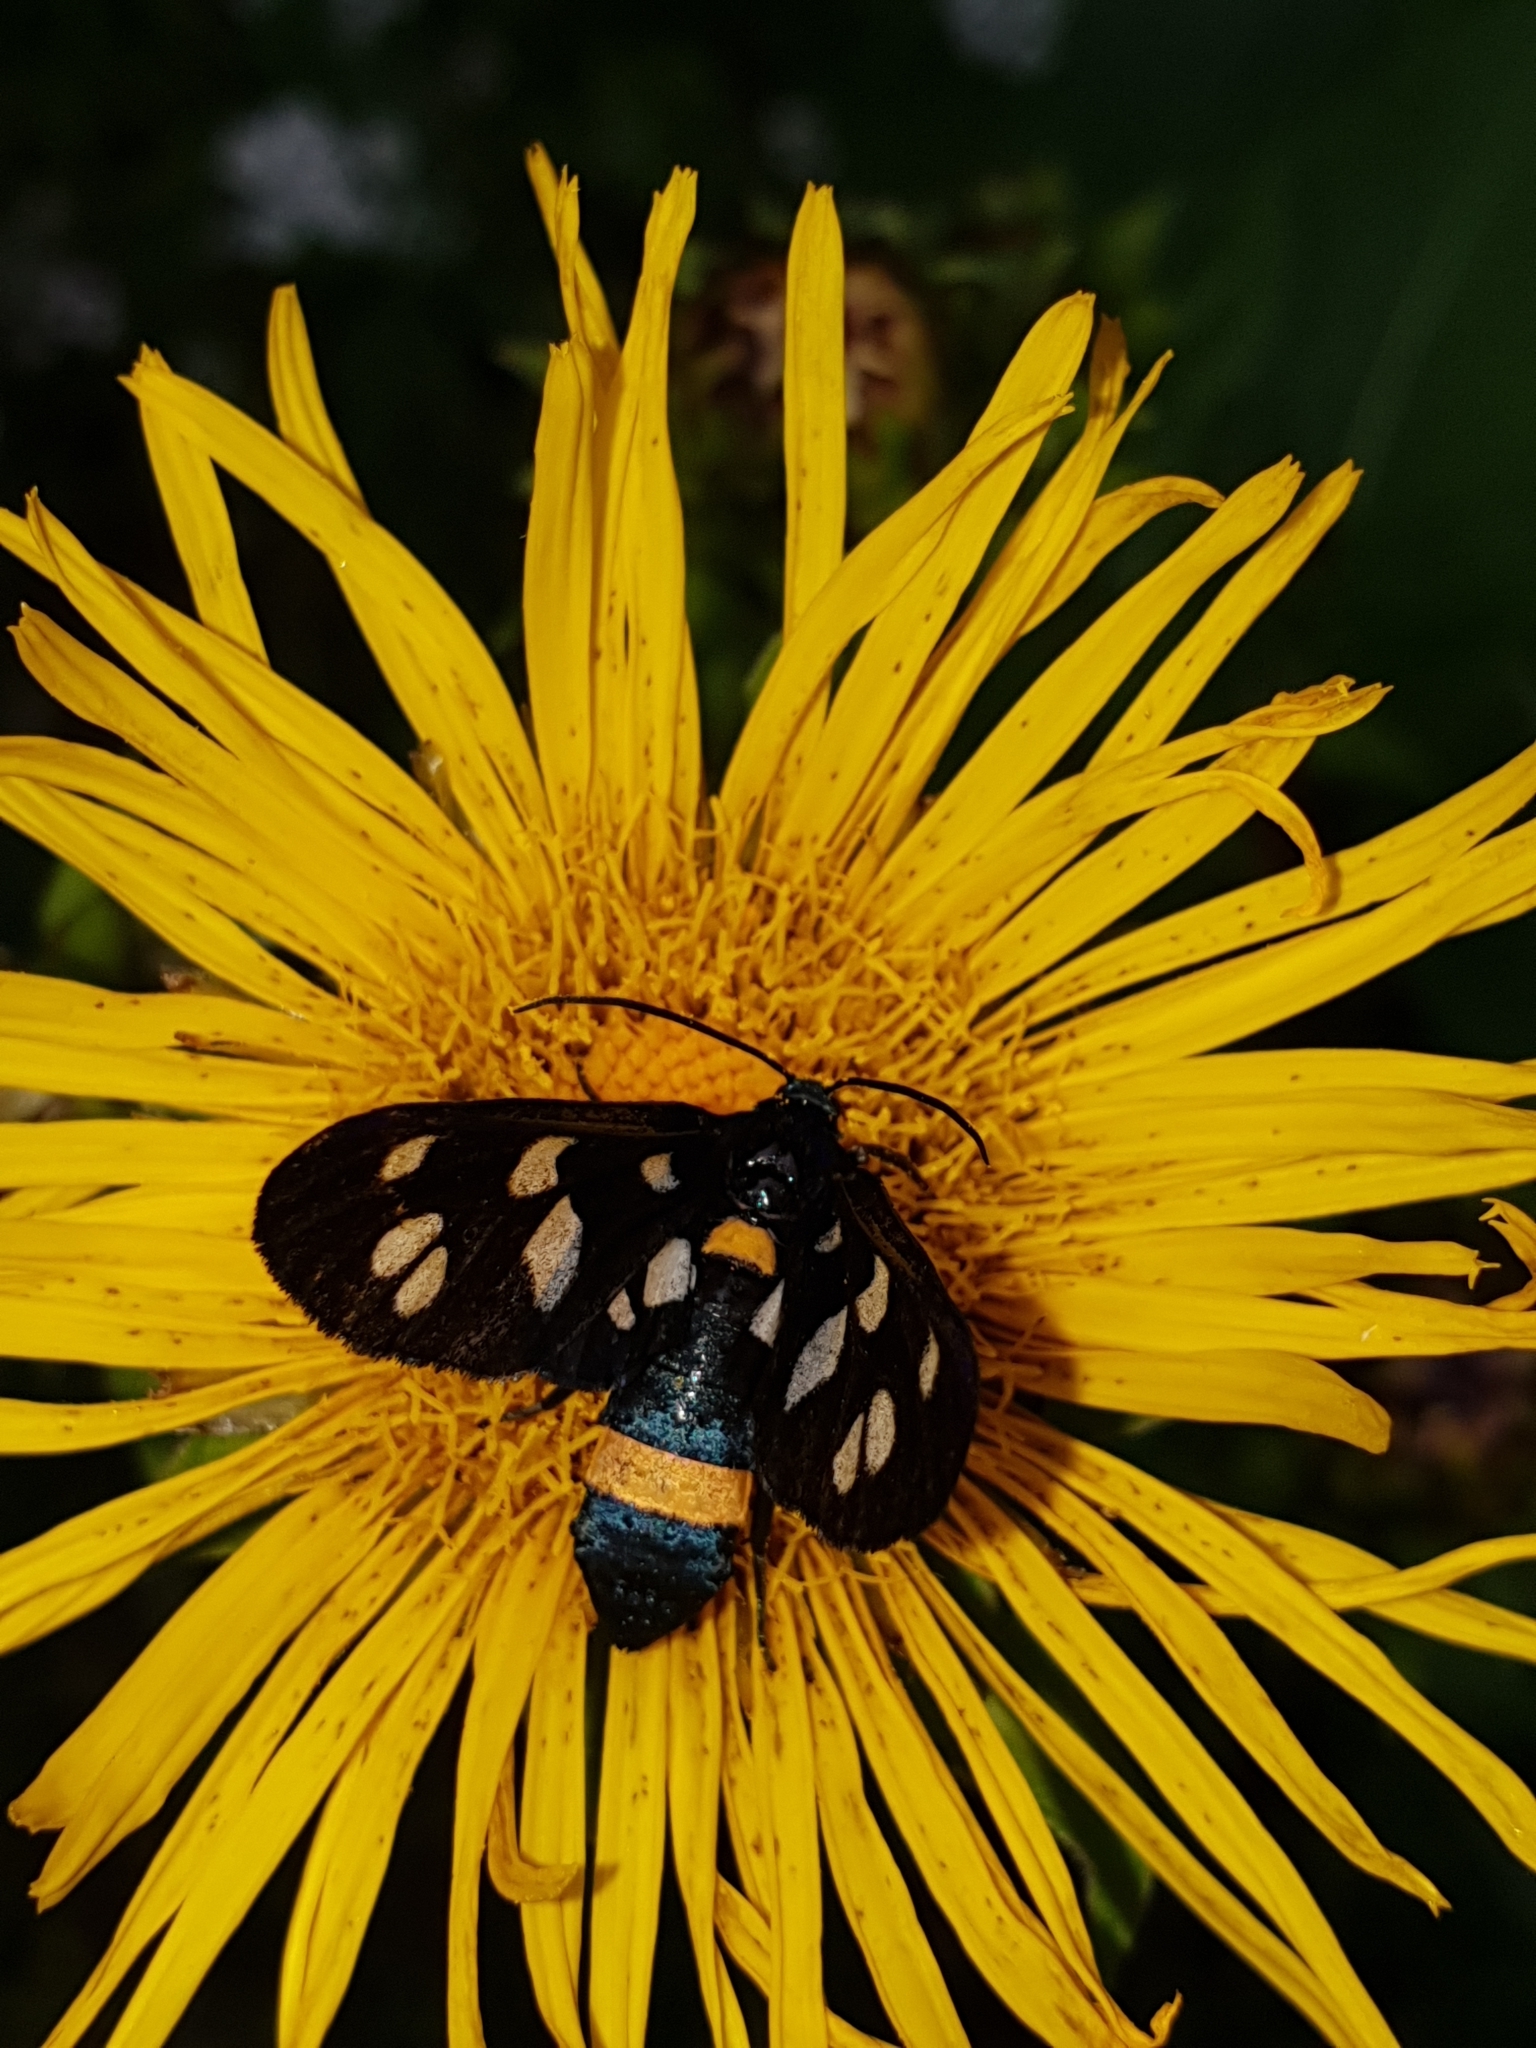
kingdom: Animalia
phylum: Arthropoda
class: Insecta
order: Lepidoptera
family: Erebidae
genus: Amata
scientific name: Amata nigricornis
